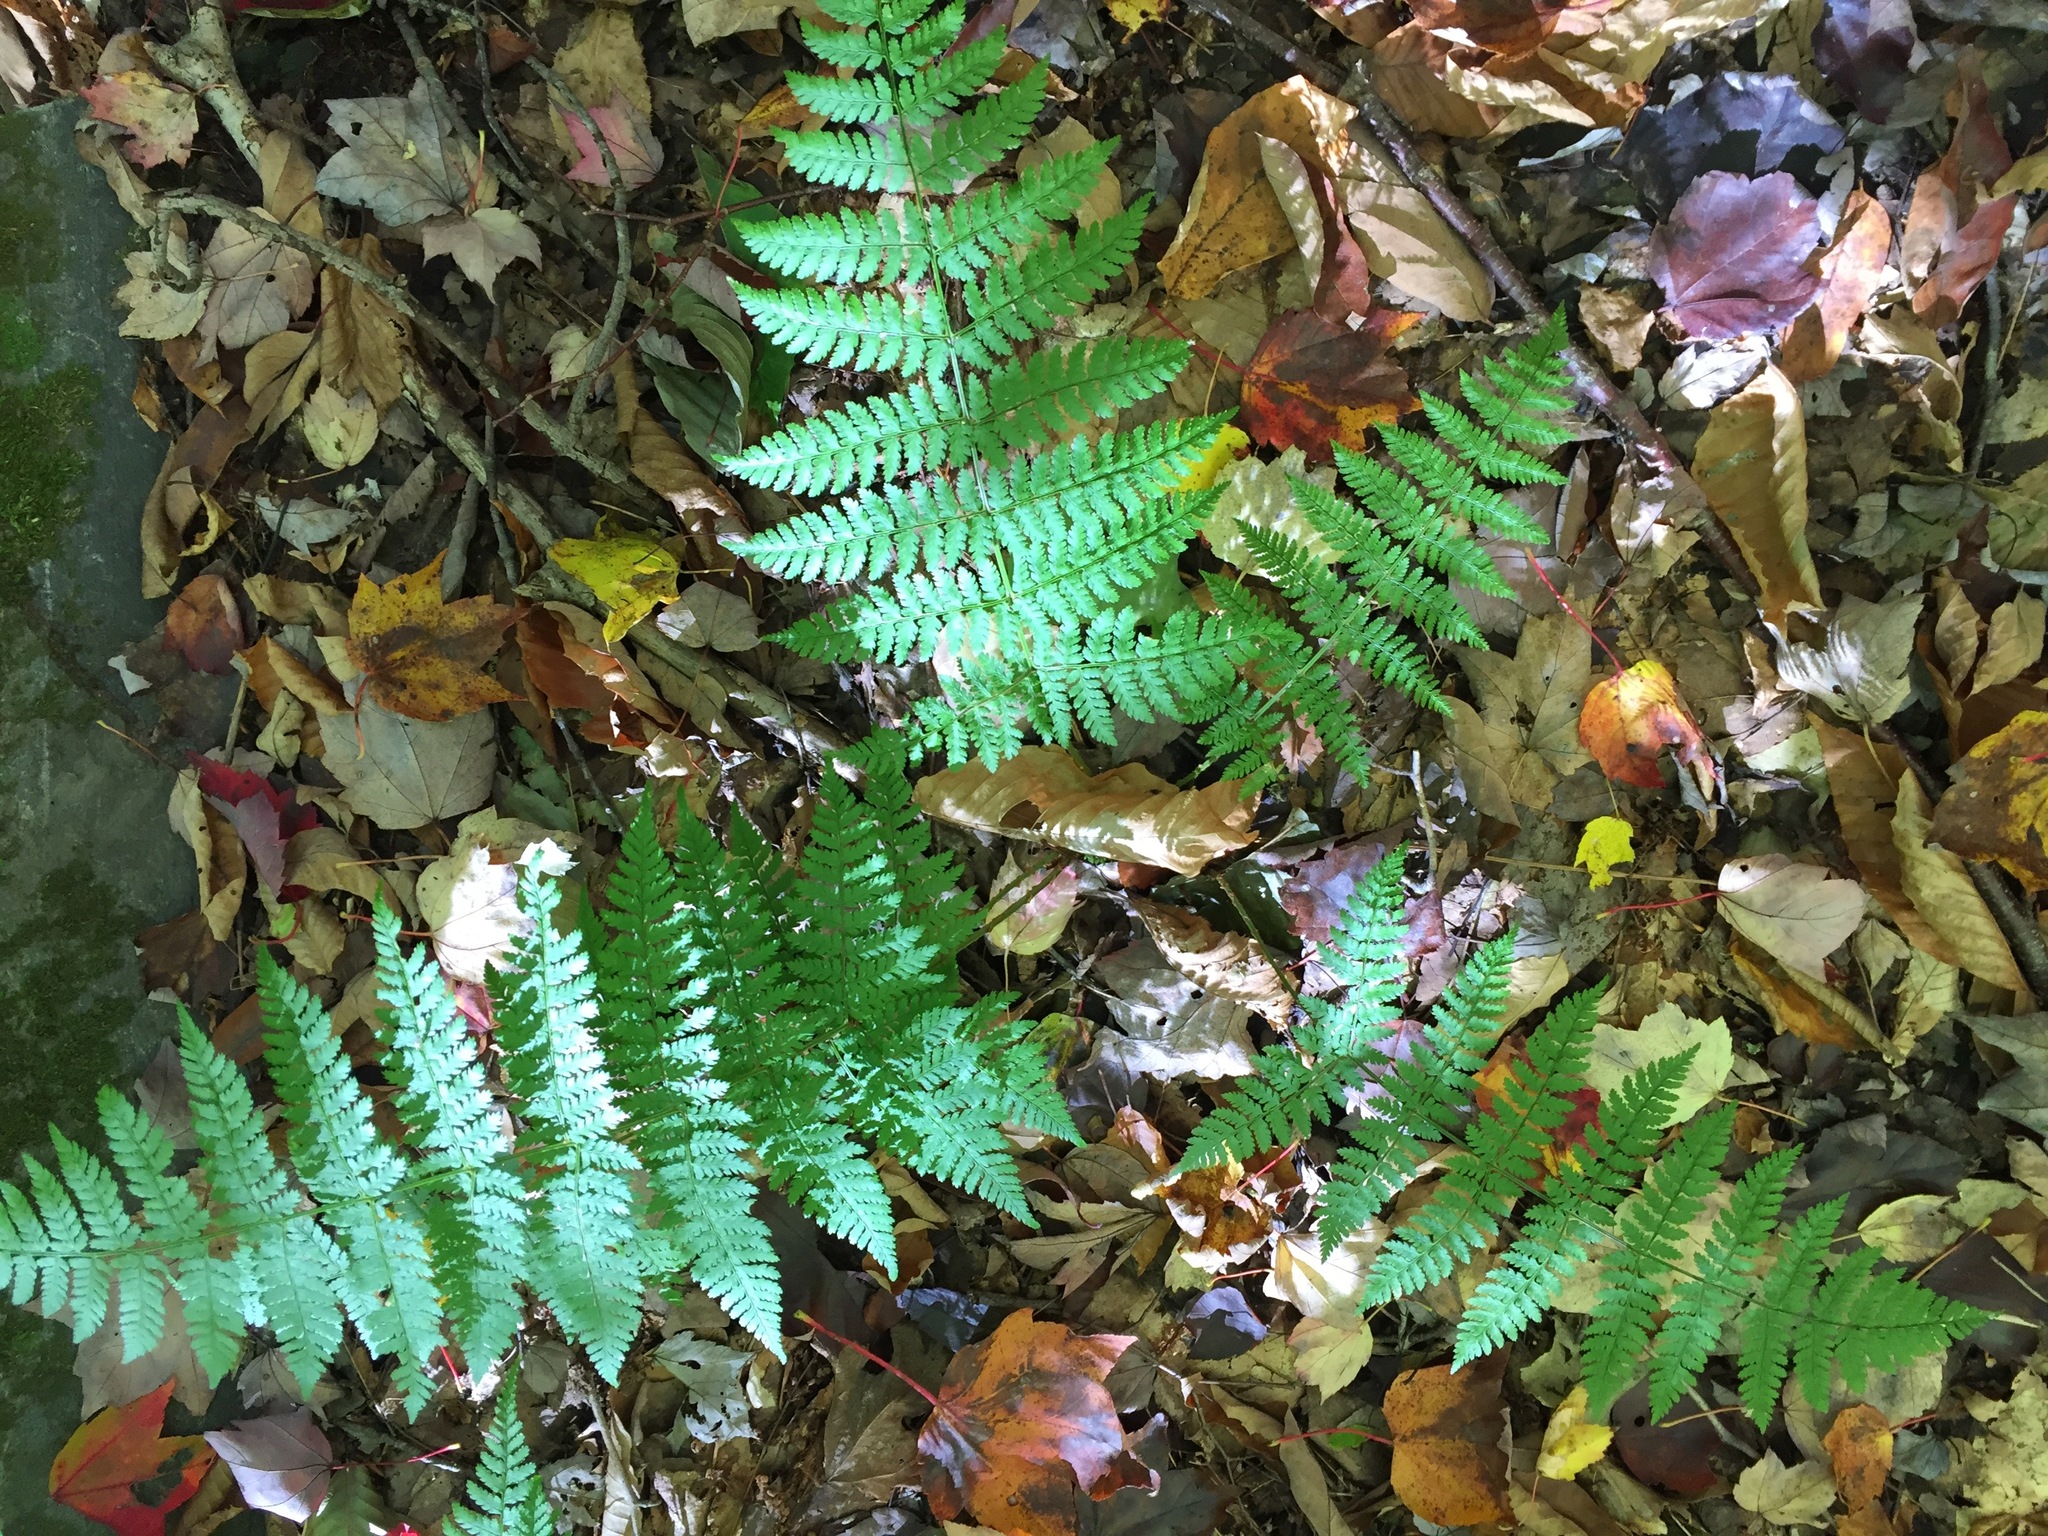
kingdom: Plantae
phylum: Tracheophyta
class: Polypodiopsida
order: Polypodiales
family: Dryopteridaceae
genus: Dryopteris
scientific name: Dryopteris intermedia
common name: Evergreen wood fern
